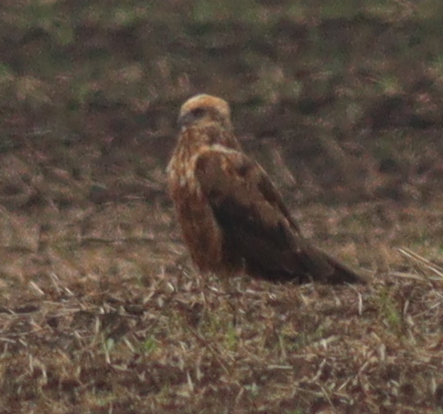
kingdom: Animalia
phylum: Chordata
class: Aves
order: Accipitriformes
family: Accipitridae
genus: Circus
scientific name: Circus aeruginosus
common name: Western marsh harrier
